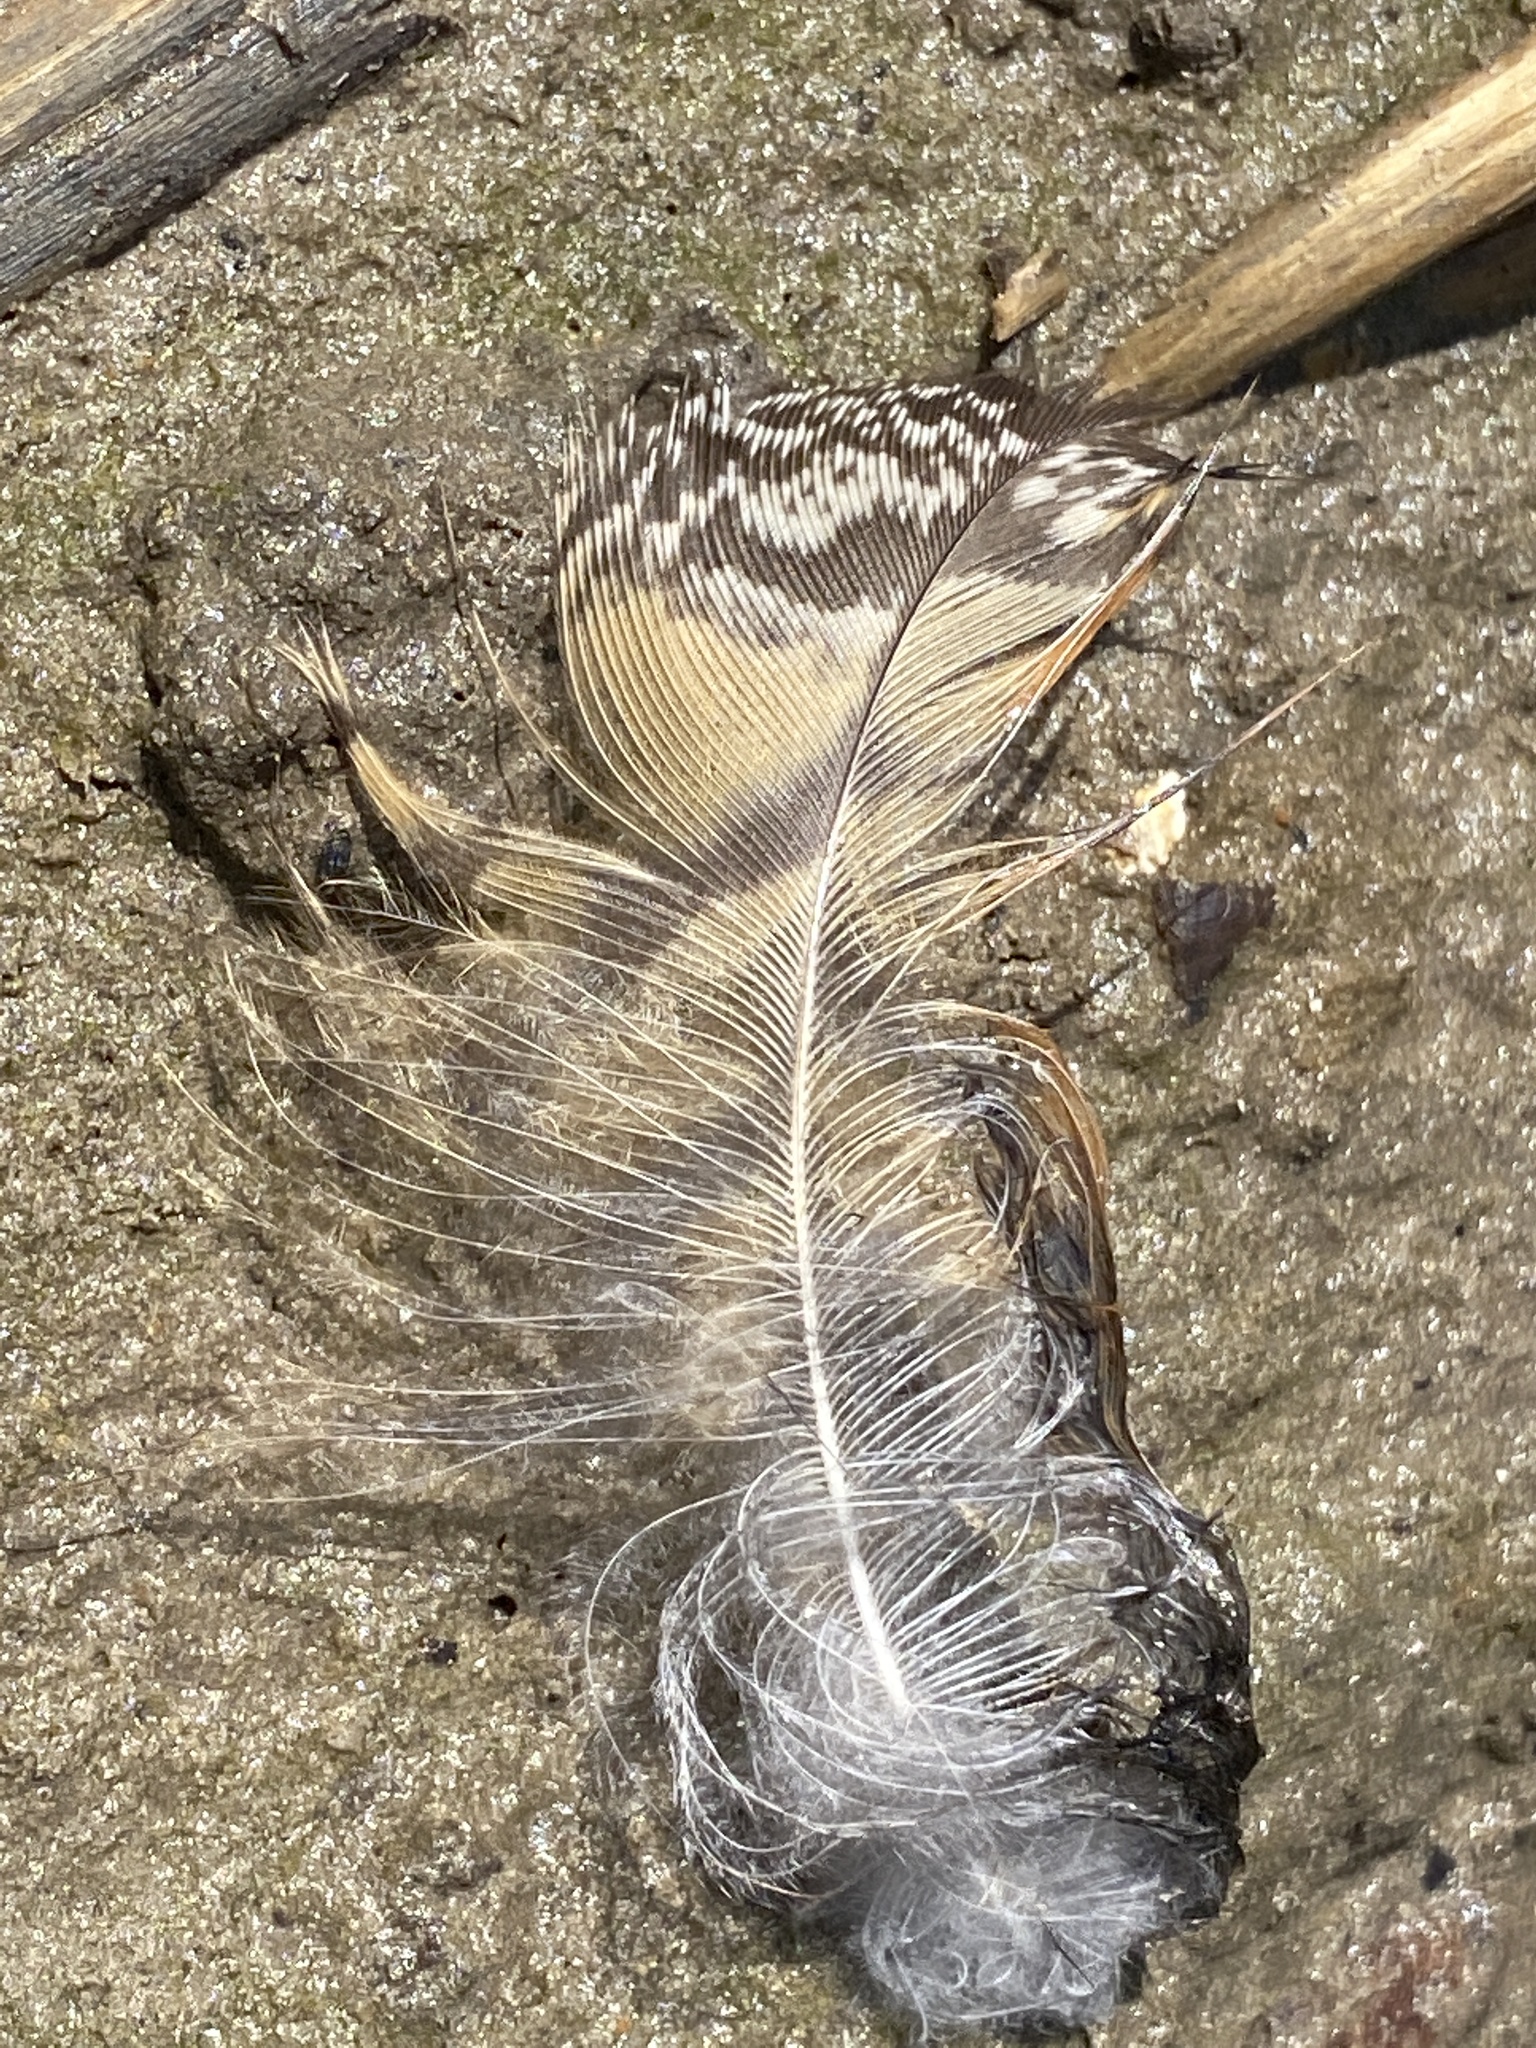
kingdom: Animalia
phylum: Chordata
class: Aves
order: Strigiformes
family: Strigidae
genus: Bubo
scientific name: Bubo virginianus
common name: Great horned owl
